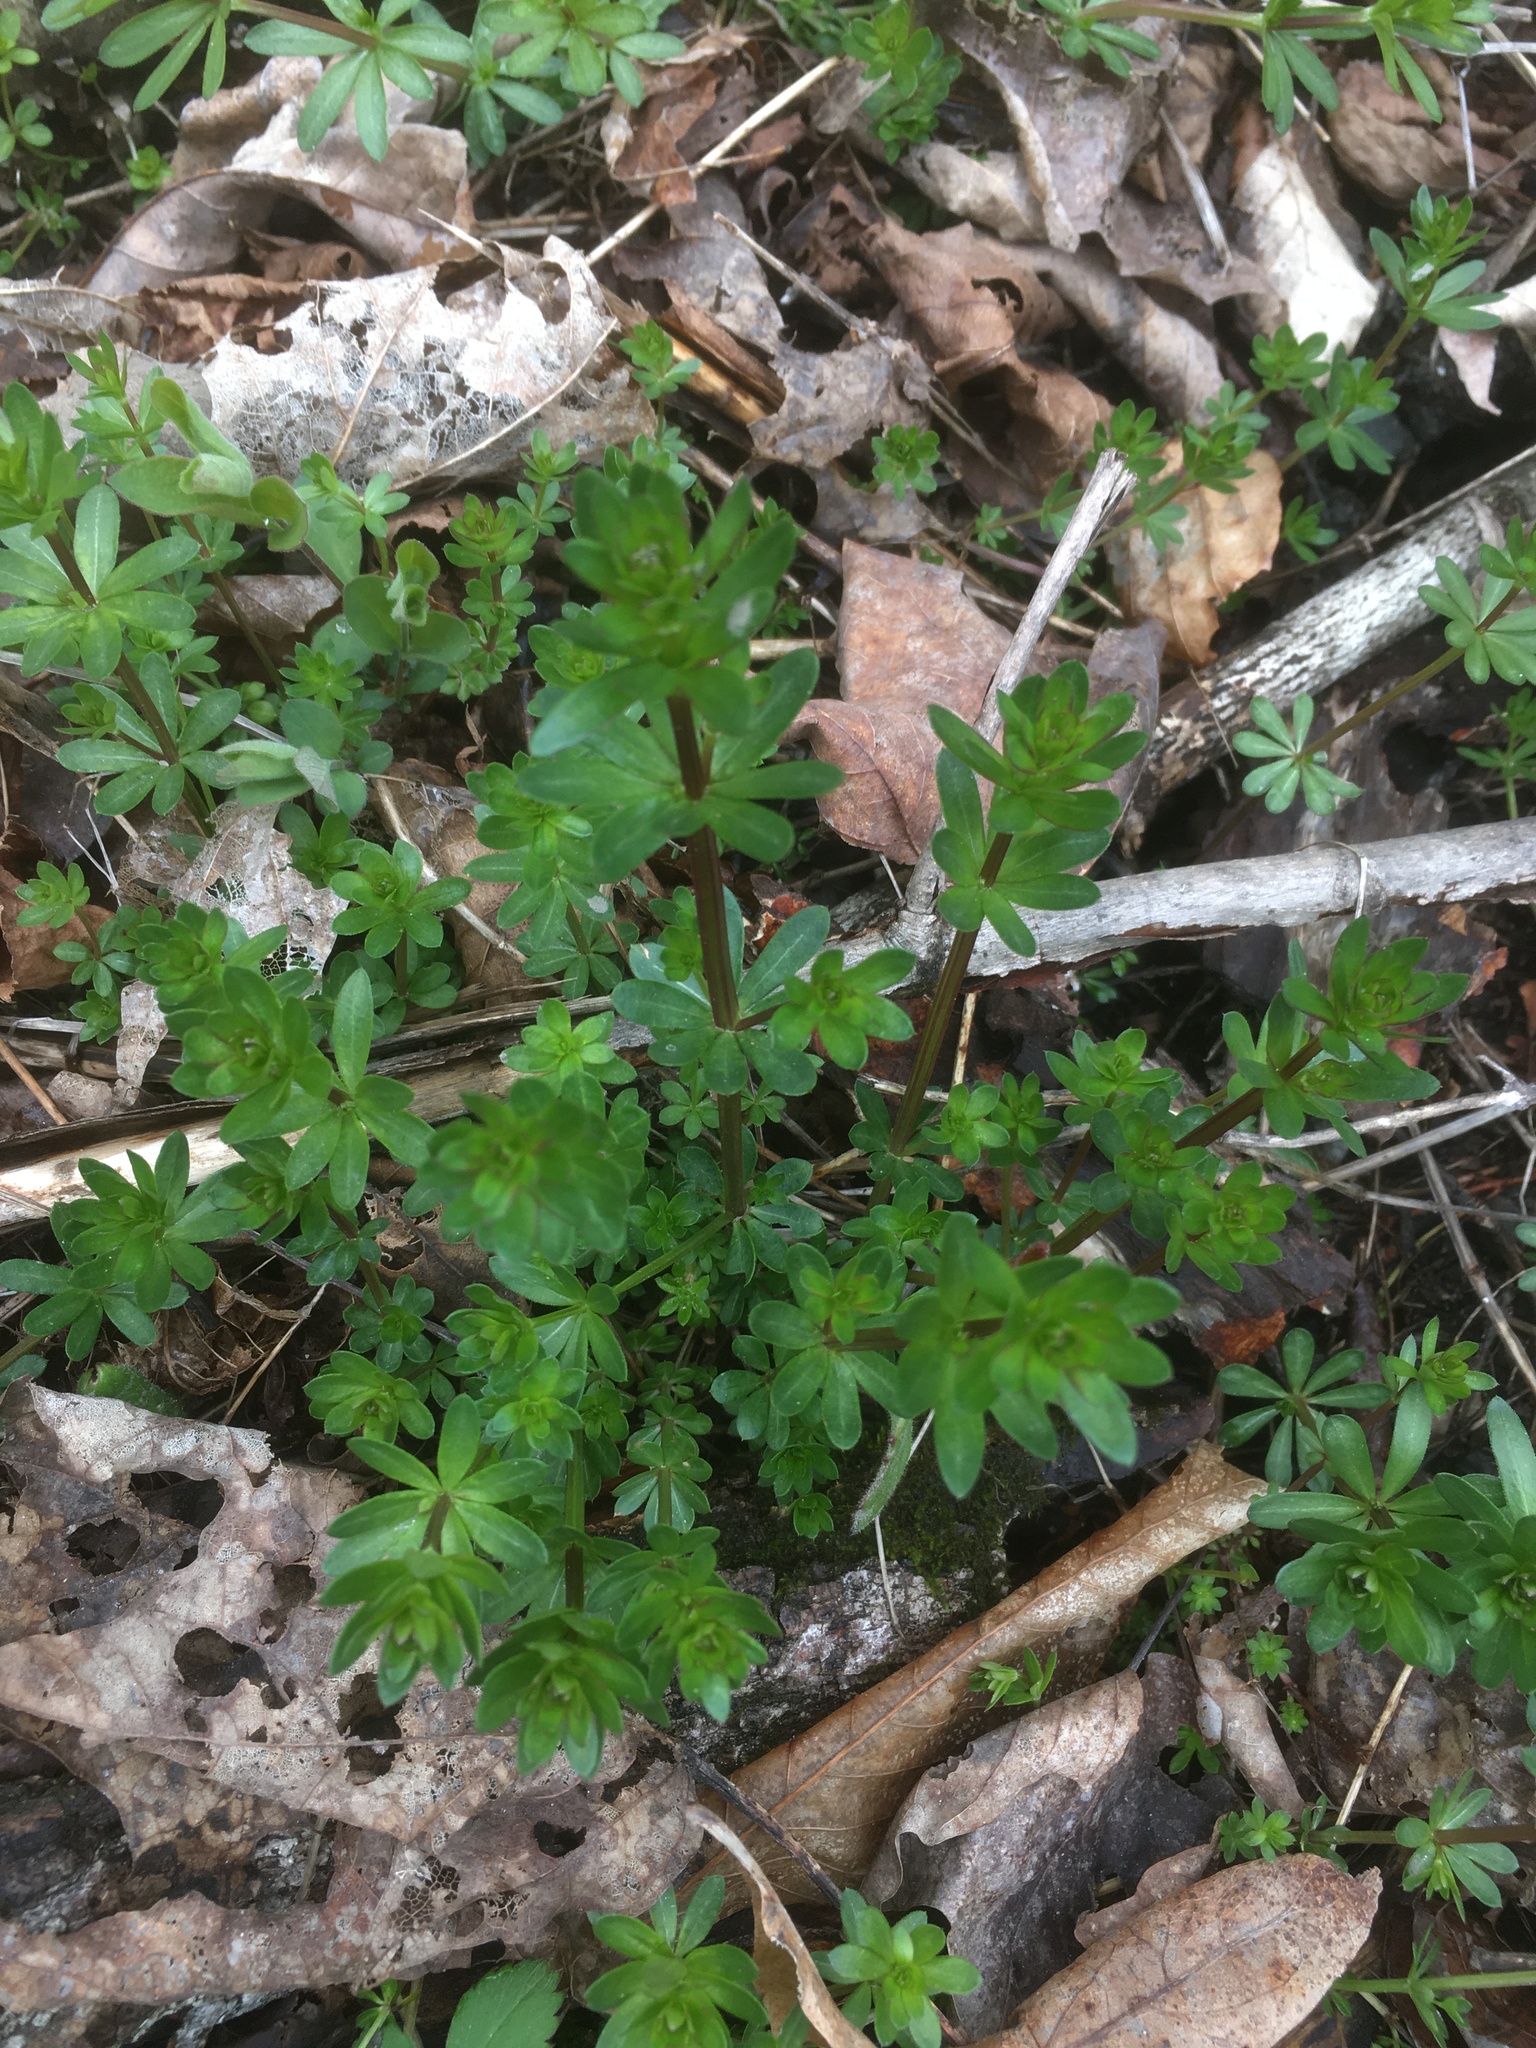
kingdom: Plantae
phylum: Tracheophyta
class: Magnoliopsida
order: Gentianales
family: Rubiaceae
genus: Galium
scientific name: Galium mollugo
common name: Hedge bedstraw
